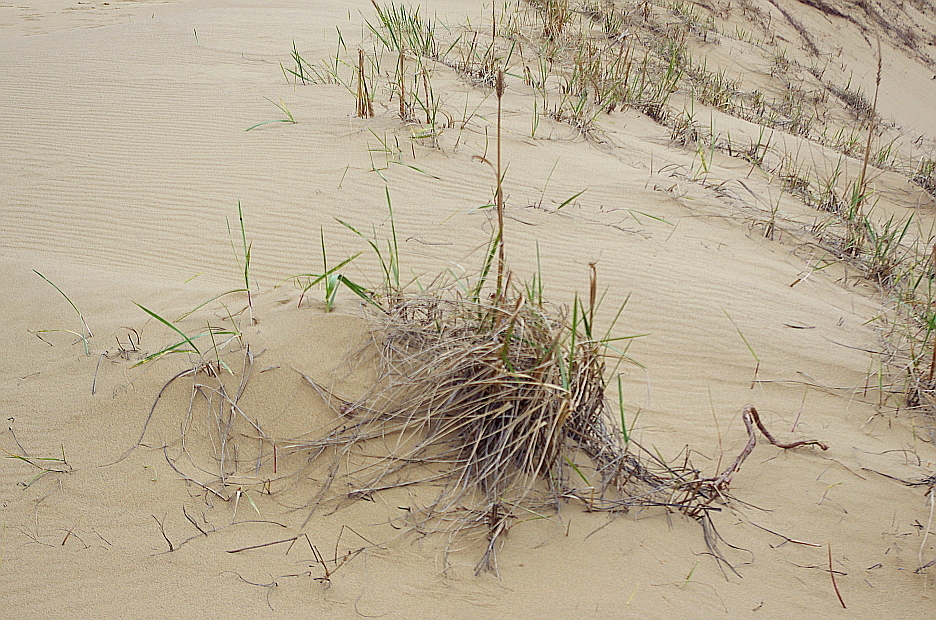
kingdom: Plantae
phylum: Tracheophyta
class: Liliopsida
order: Poales
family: Poaceae
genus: Leymus
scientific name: Leymus racemosus
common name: Mammoth wildrye
